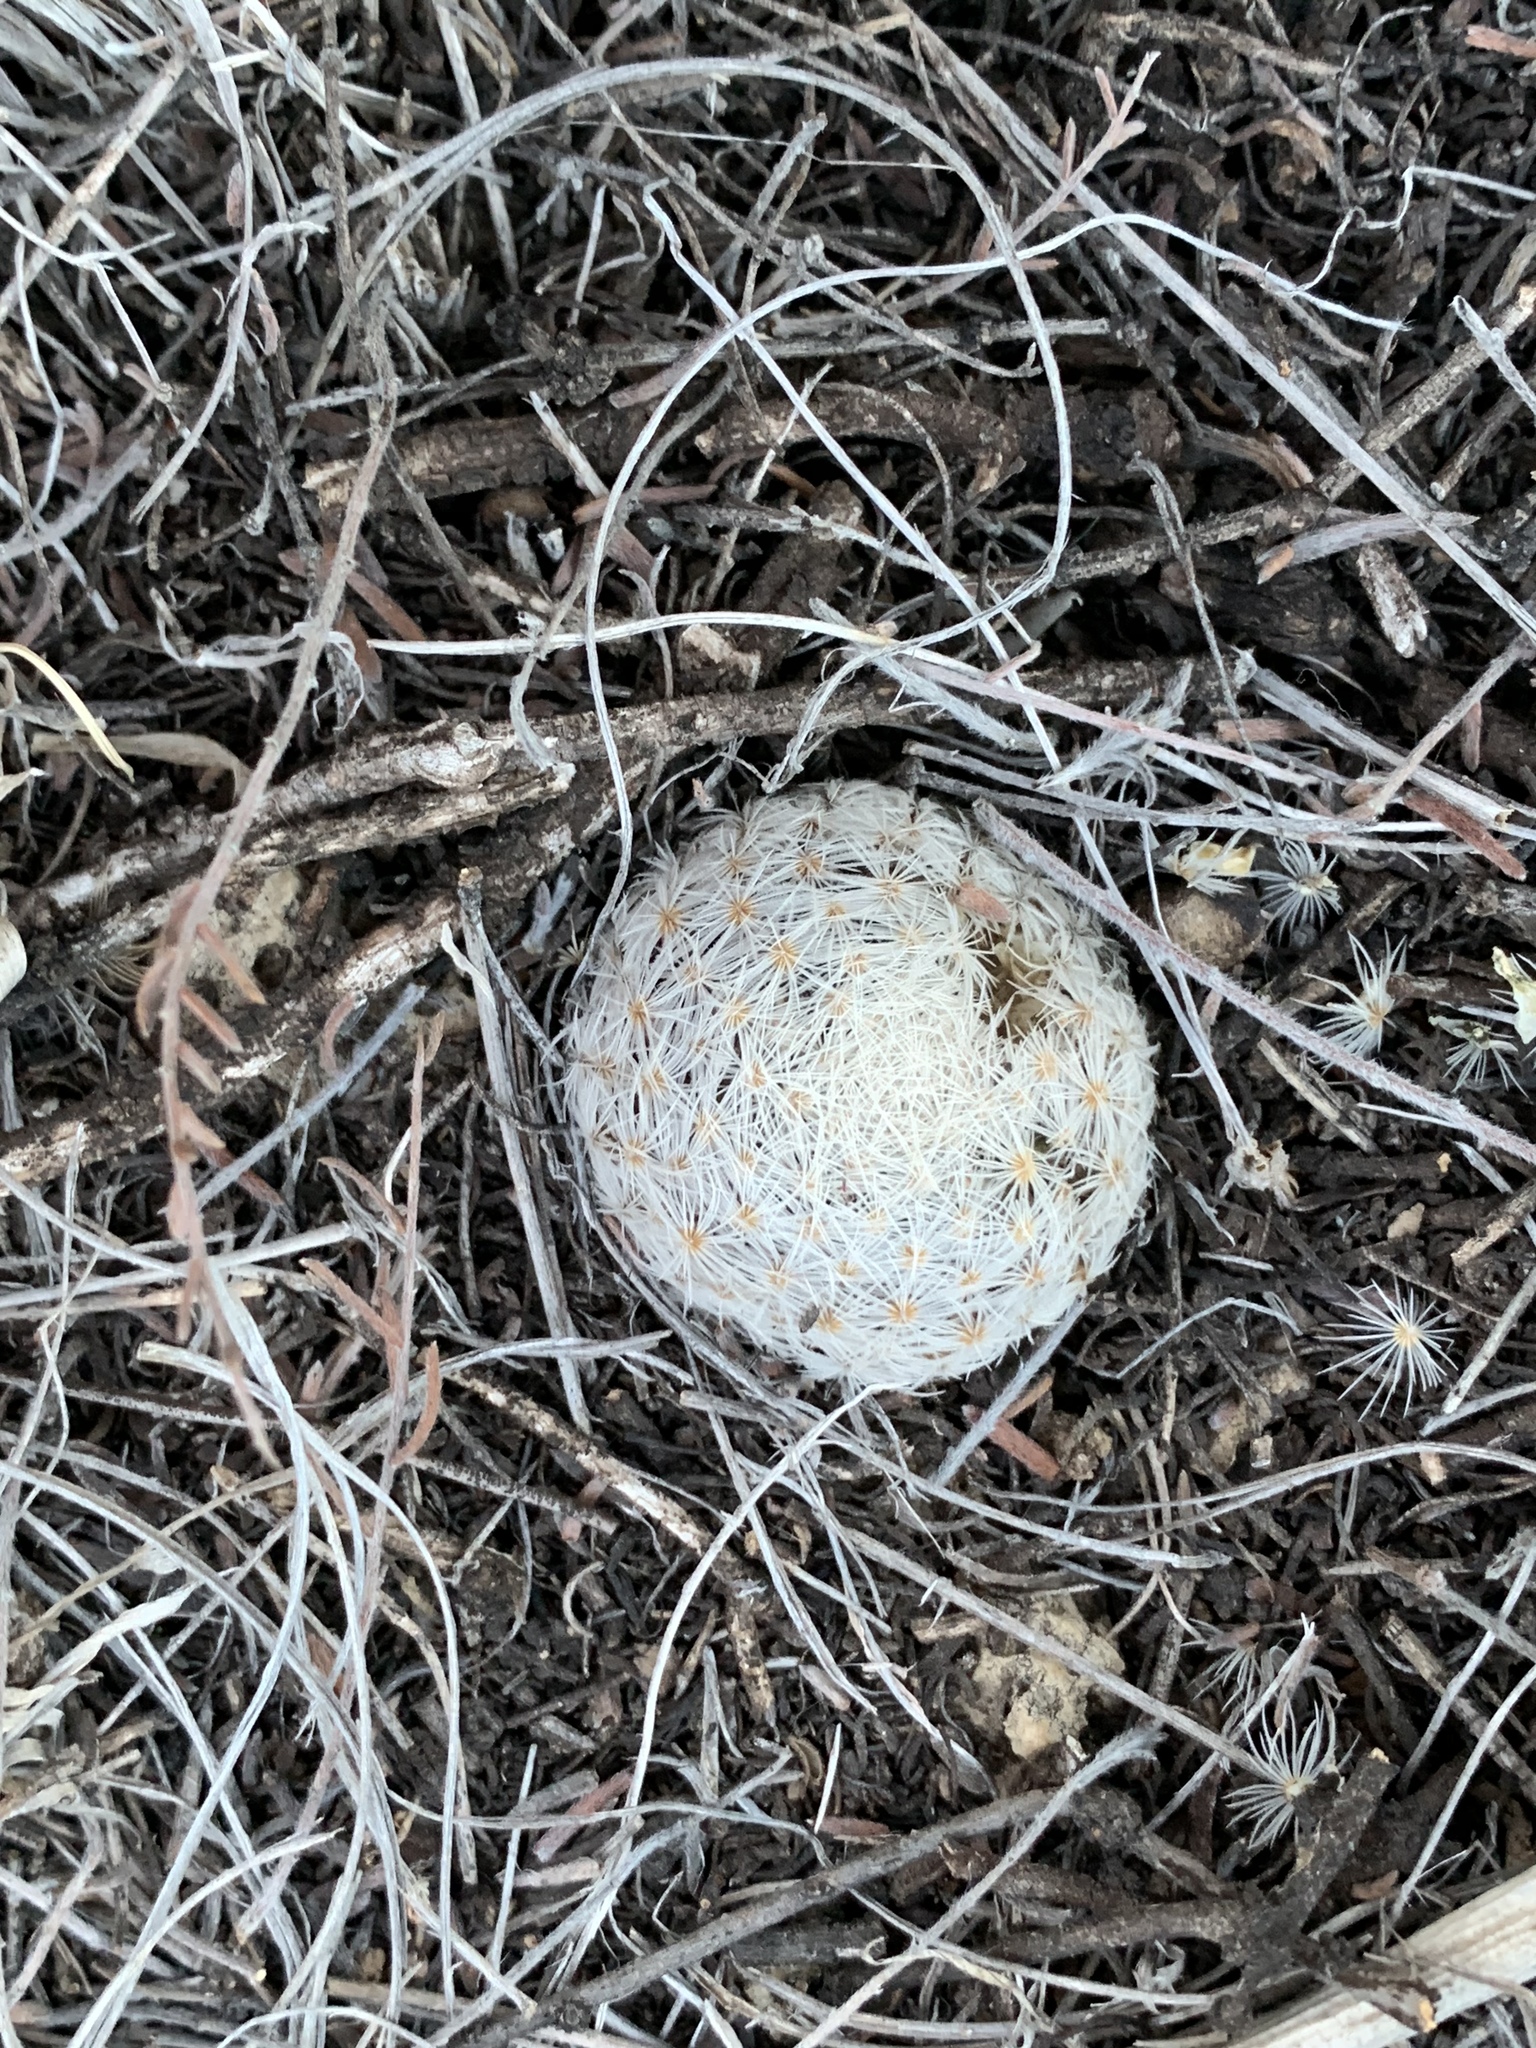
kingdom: Plantae
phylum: Tracheophyta
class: Magnoliopsida
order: Caryophyllales
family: Cactaceae
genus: Mammillaria
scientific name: Mammillaria lasiacantha
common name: Lace-spine nipple cactus
